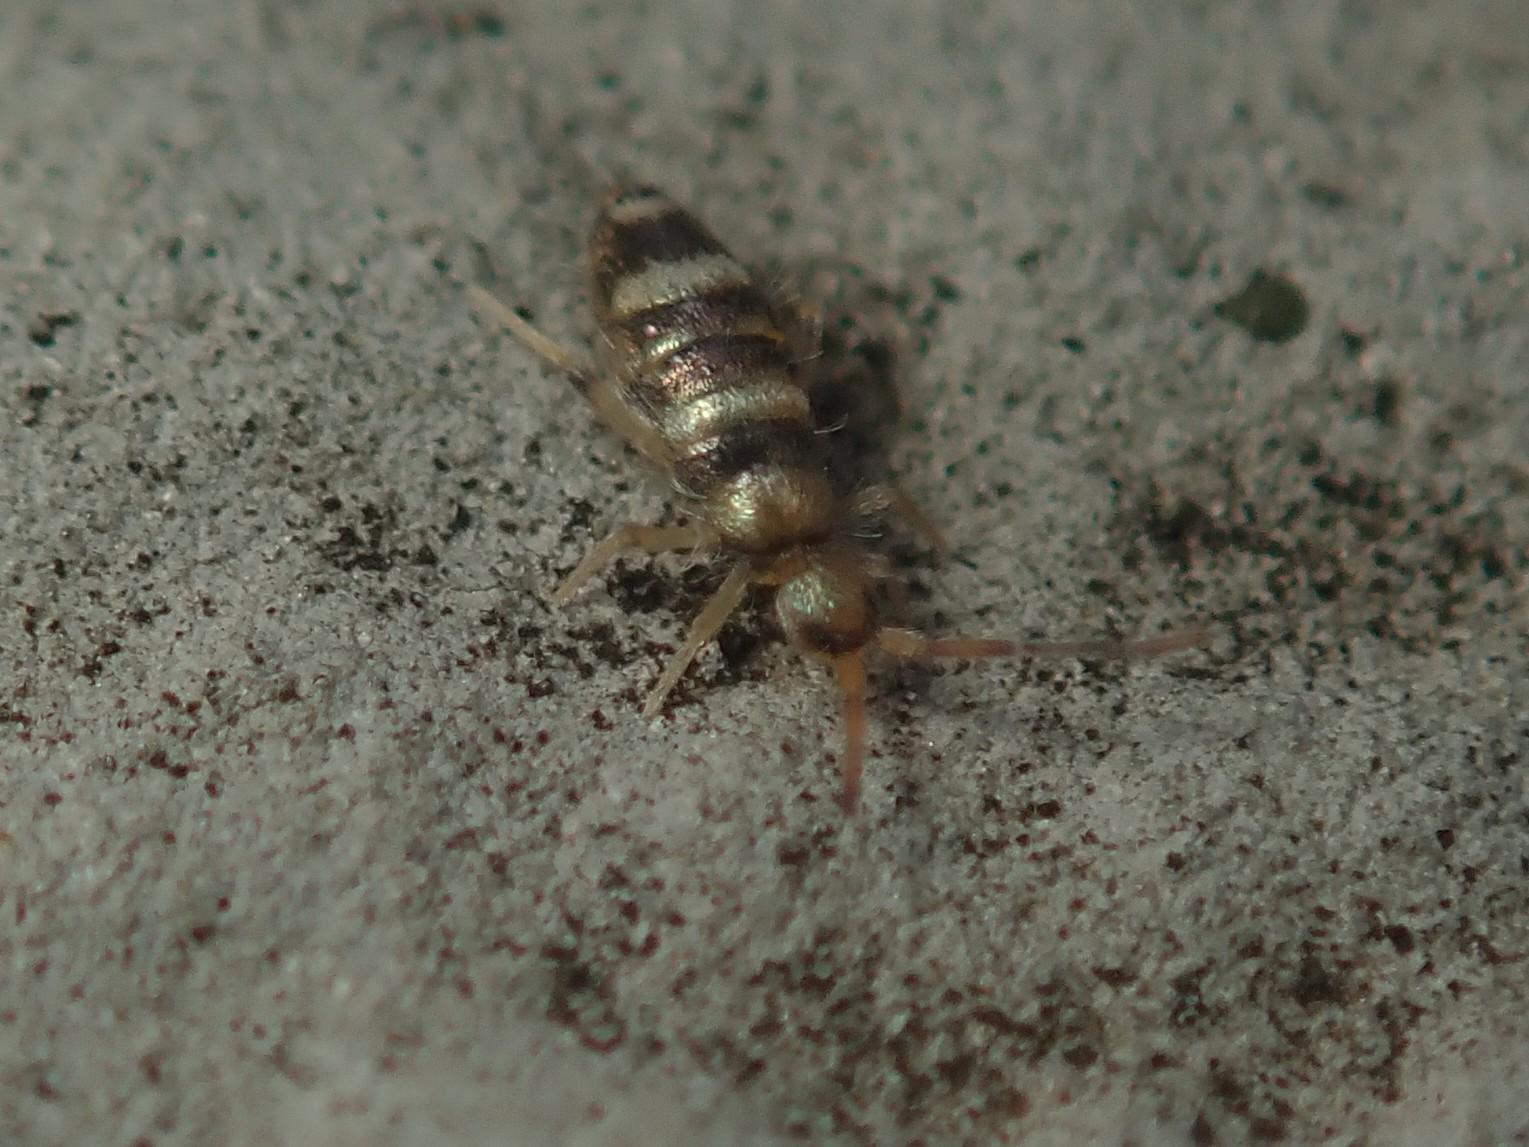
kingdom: Animalia
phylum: Arthropoda
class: Collembola
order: Entomobryomorpha
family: Entomobryidae
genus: Willowsia
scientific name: Willowsia platani
